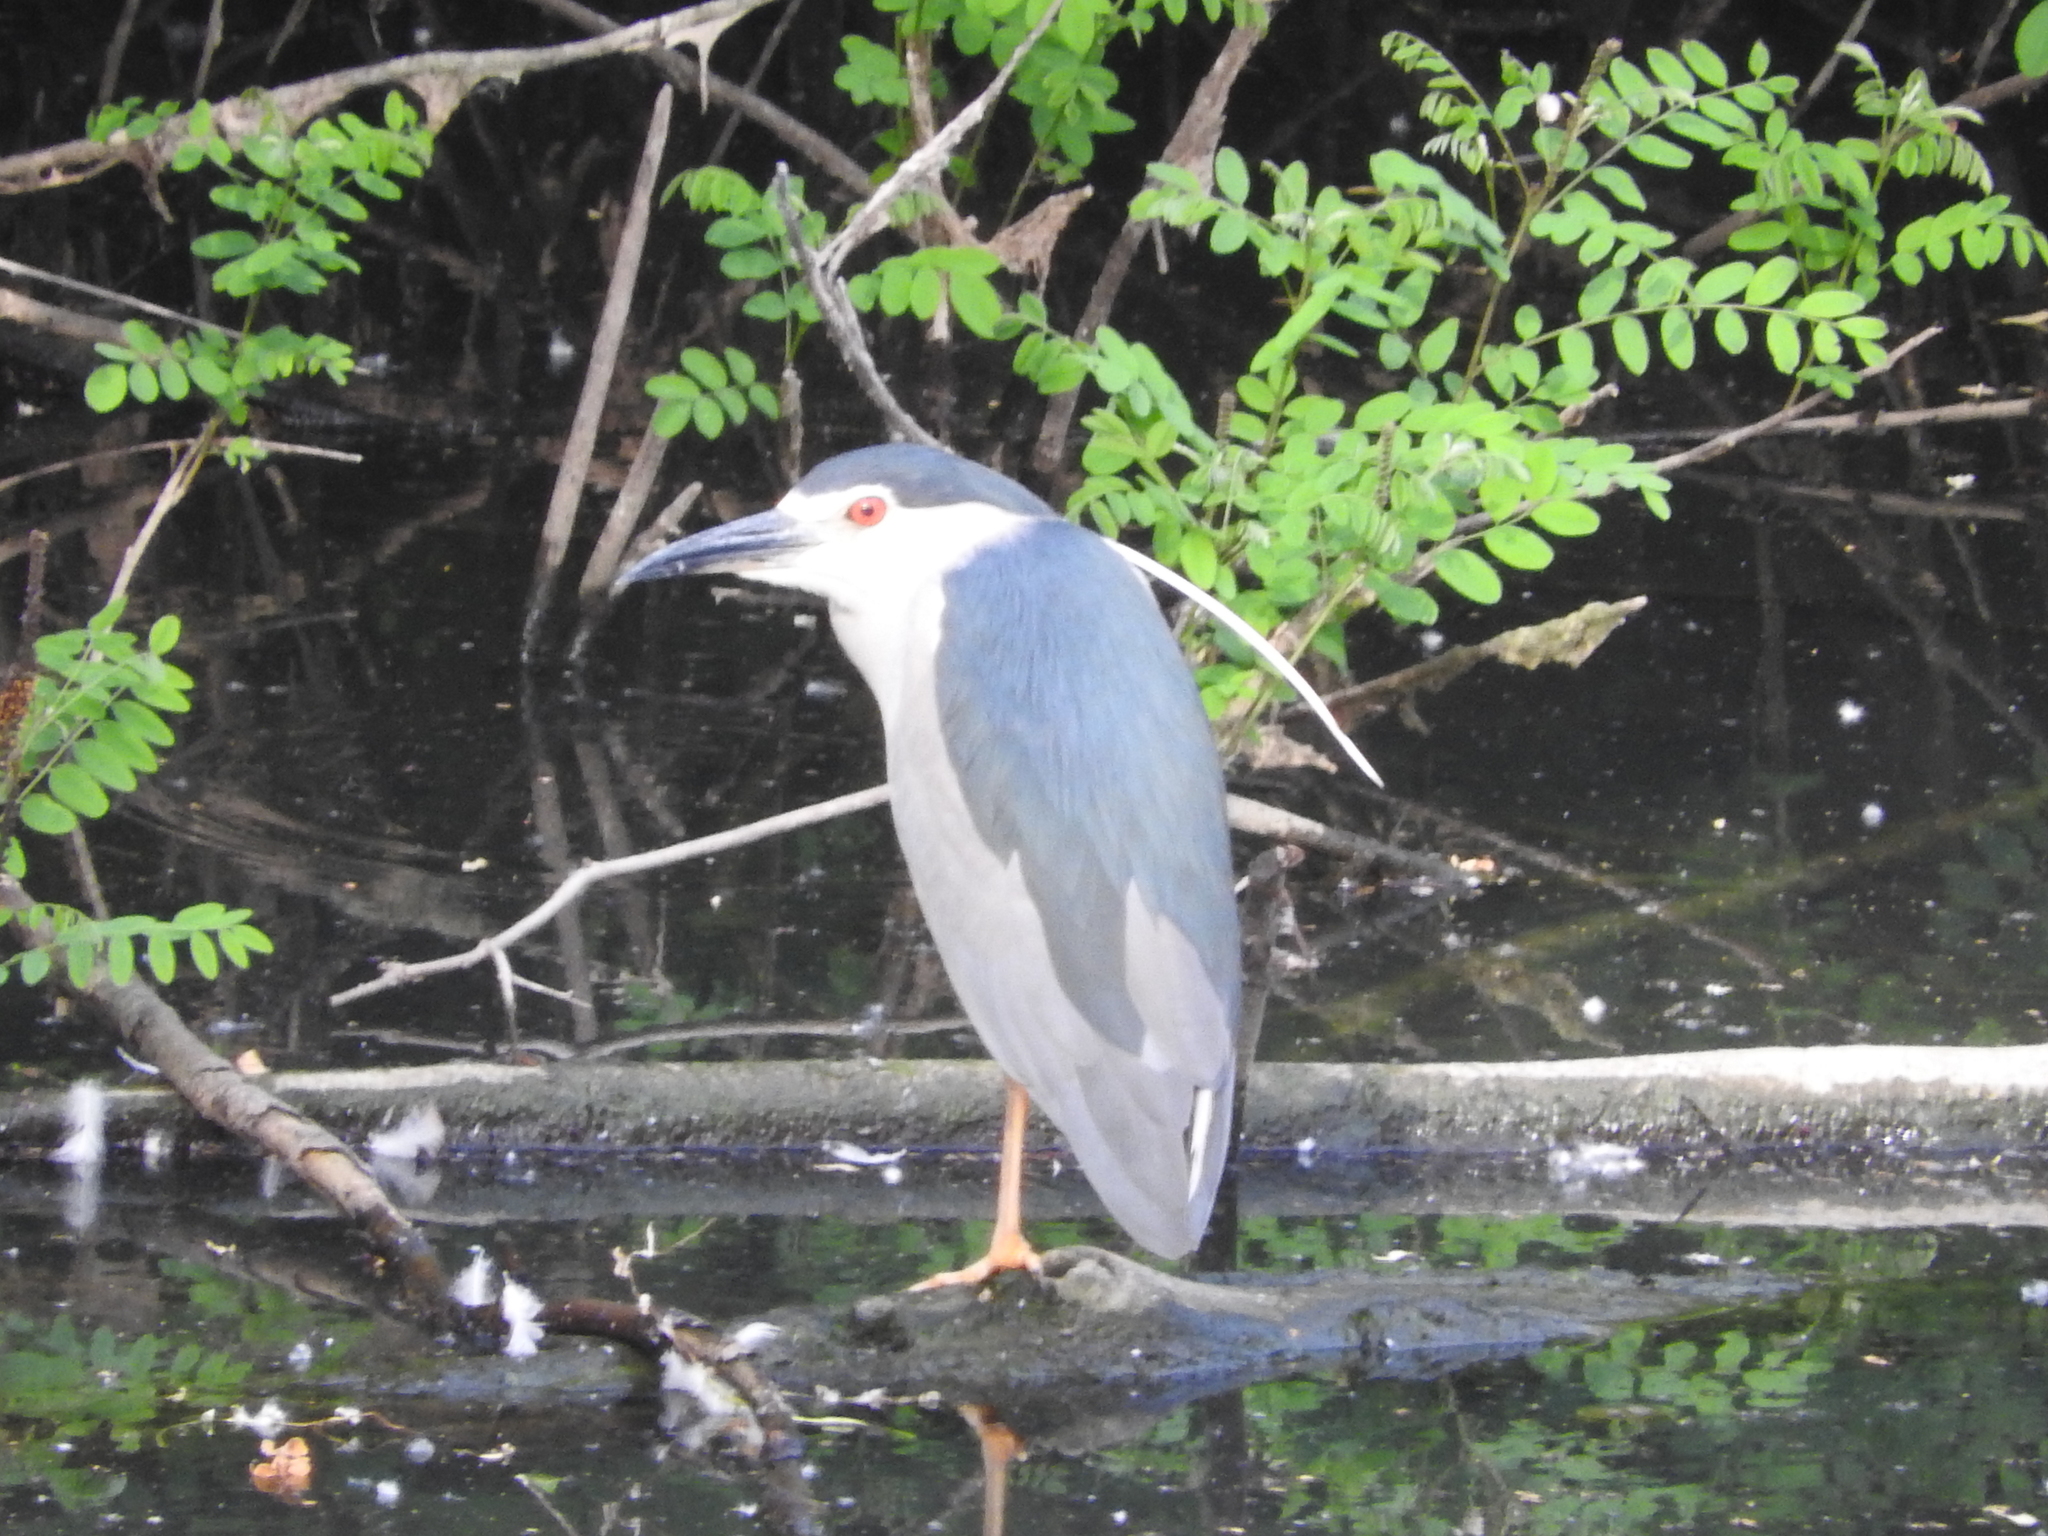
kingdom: Animalia
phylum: Chordata
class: Aves
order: Pelecaniformes
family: Ardeidae
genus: Nycticorax
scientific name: Nycticorax nycticorax
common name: Black-crowned night heron
